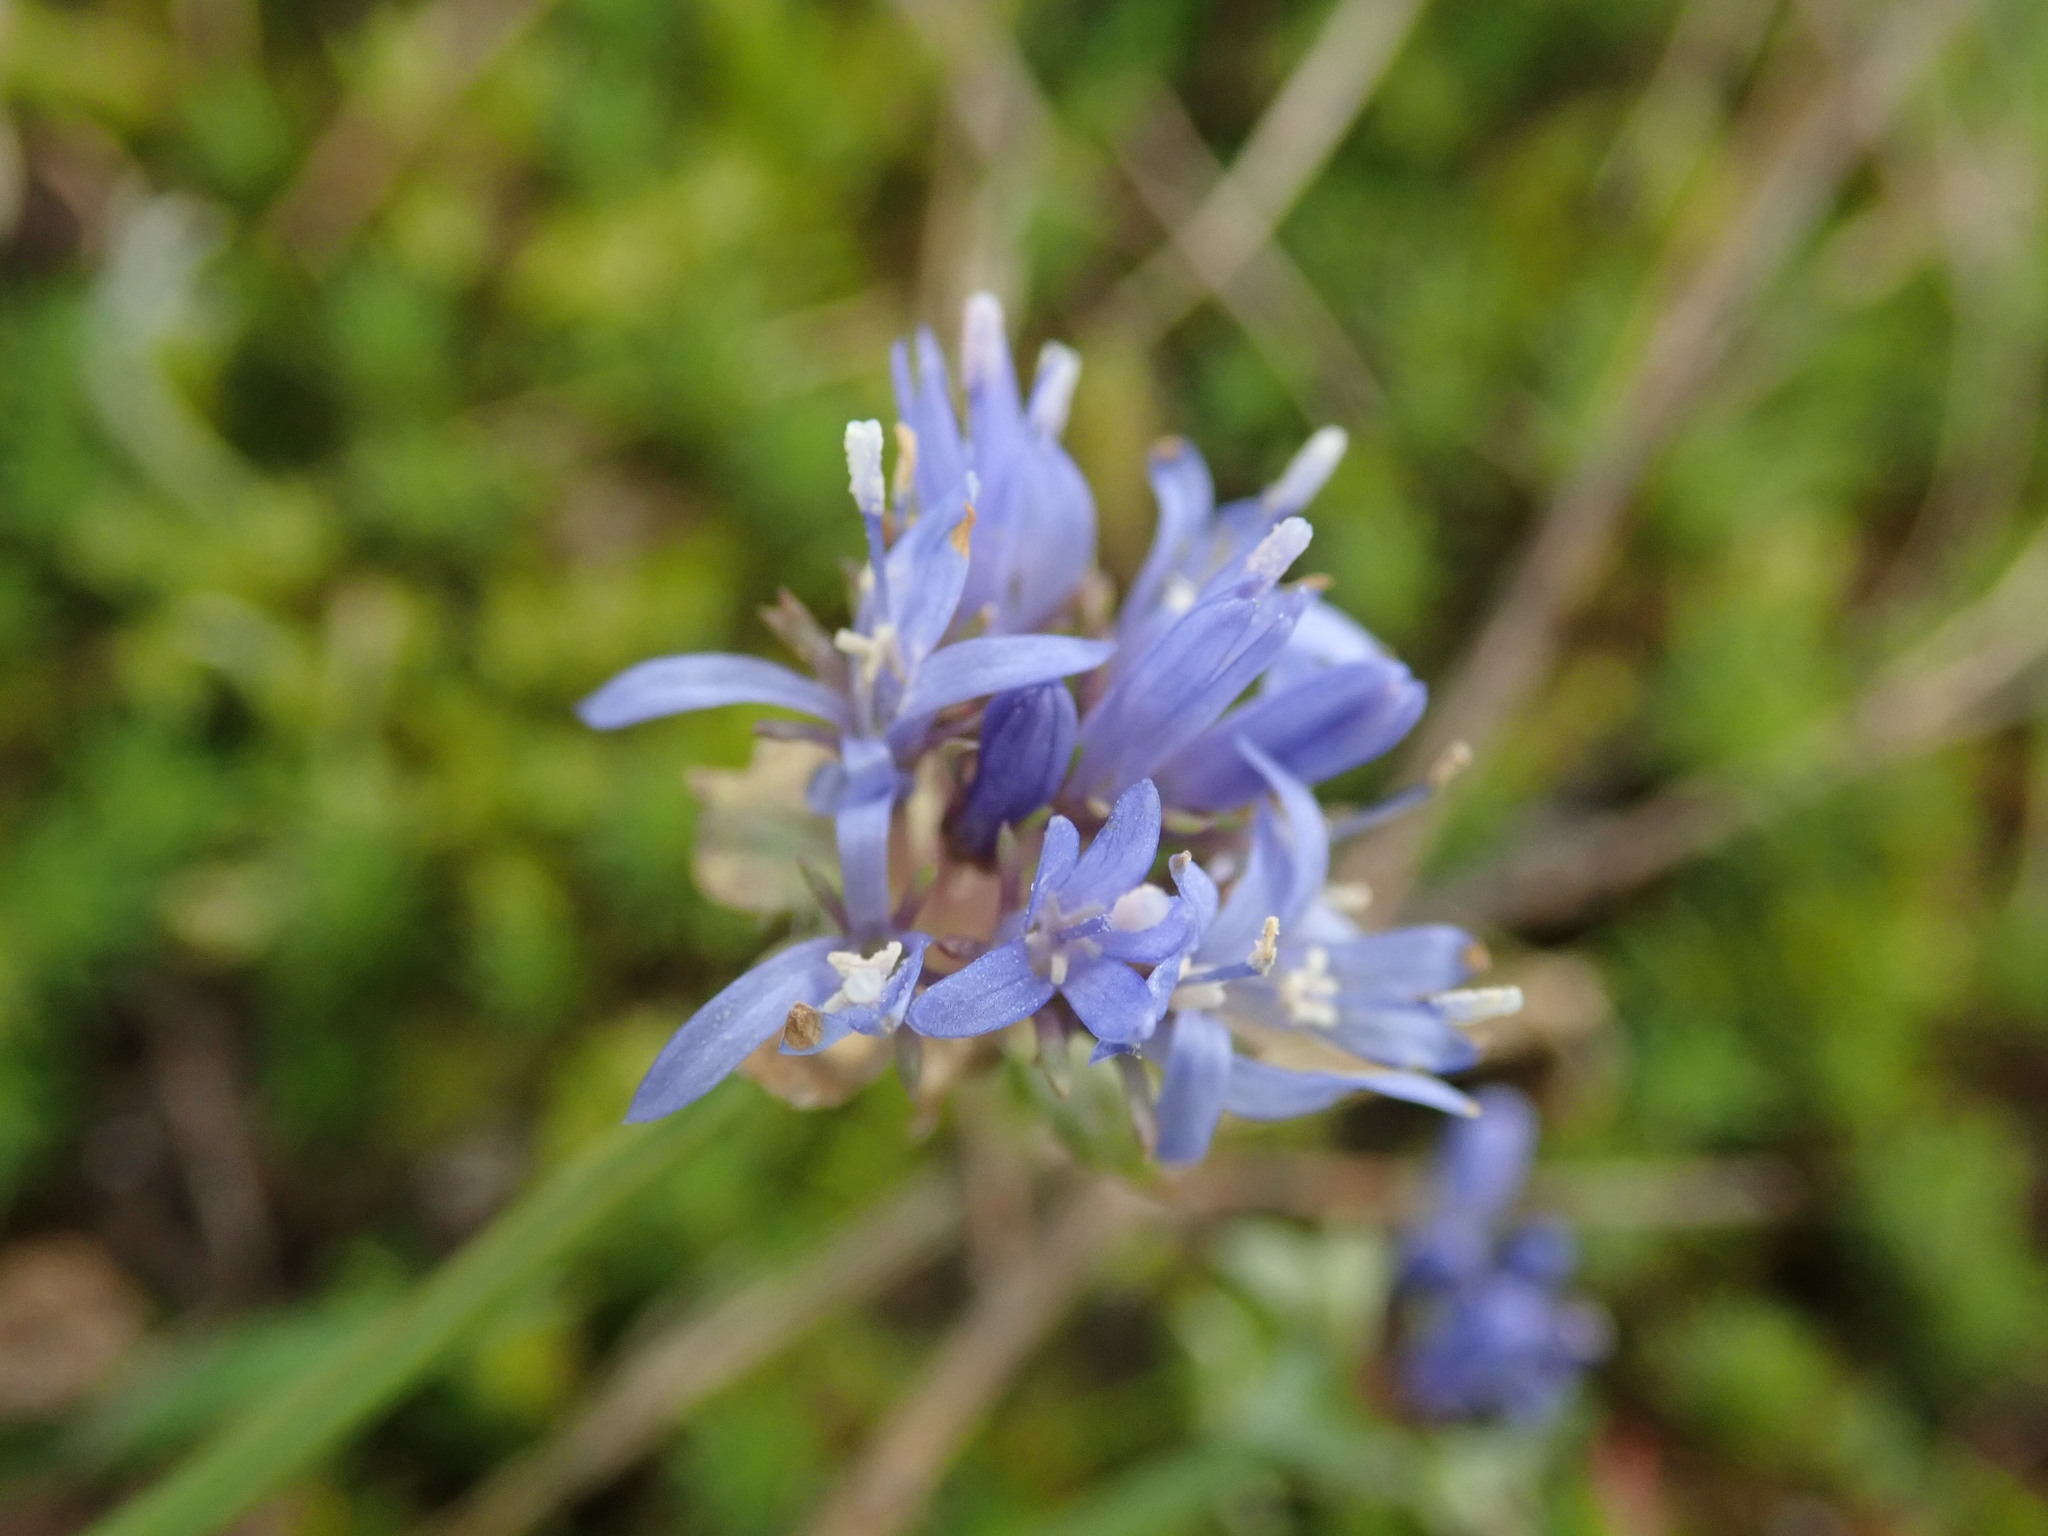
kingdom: Plantae
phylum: Tracheophyta
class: Magnoliopsida
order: Asterales
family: Campanulaceae
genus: Jasione
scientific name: Jasione montana
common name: Sheep's-bit
